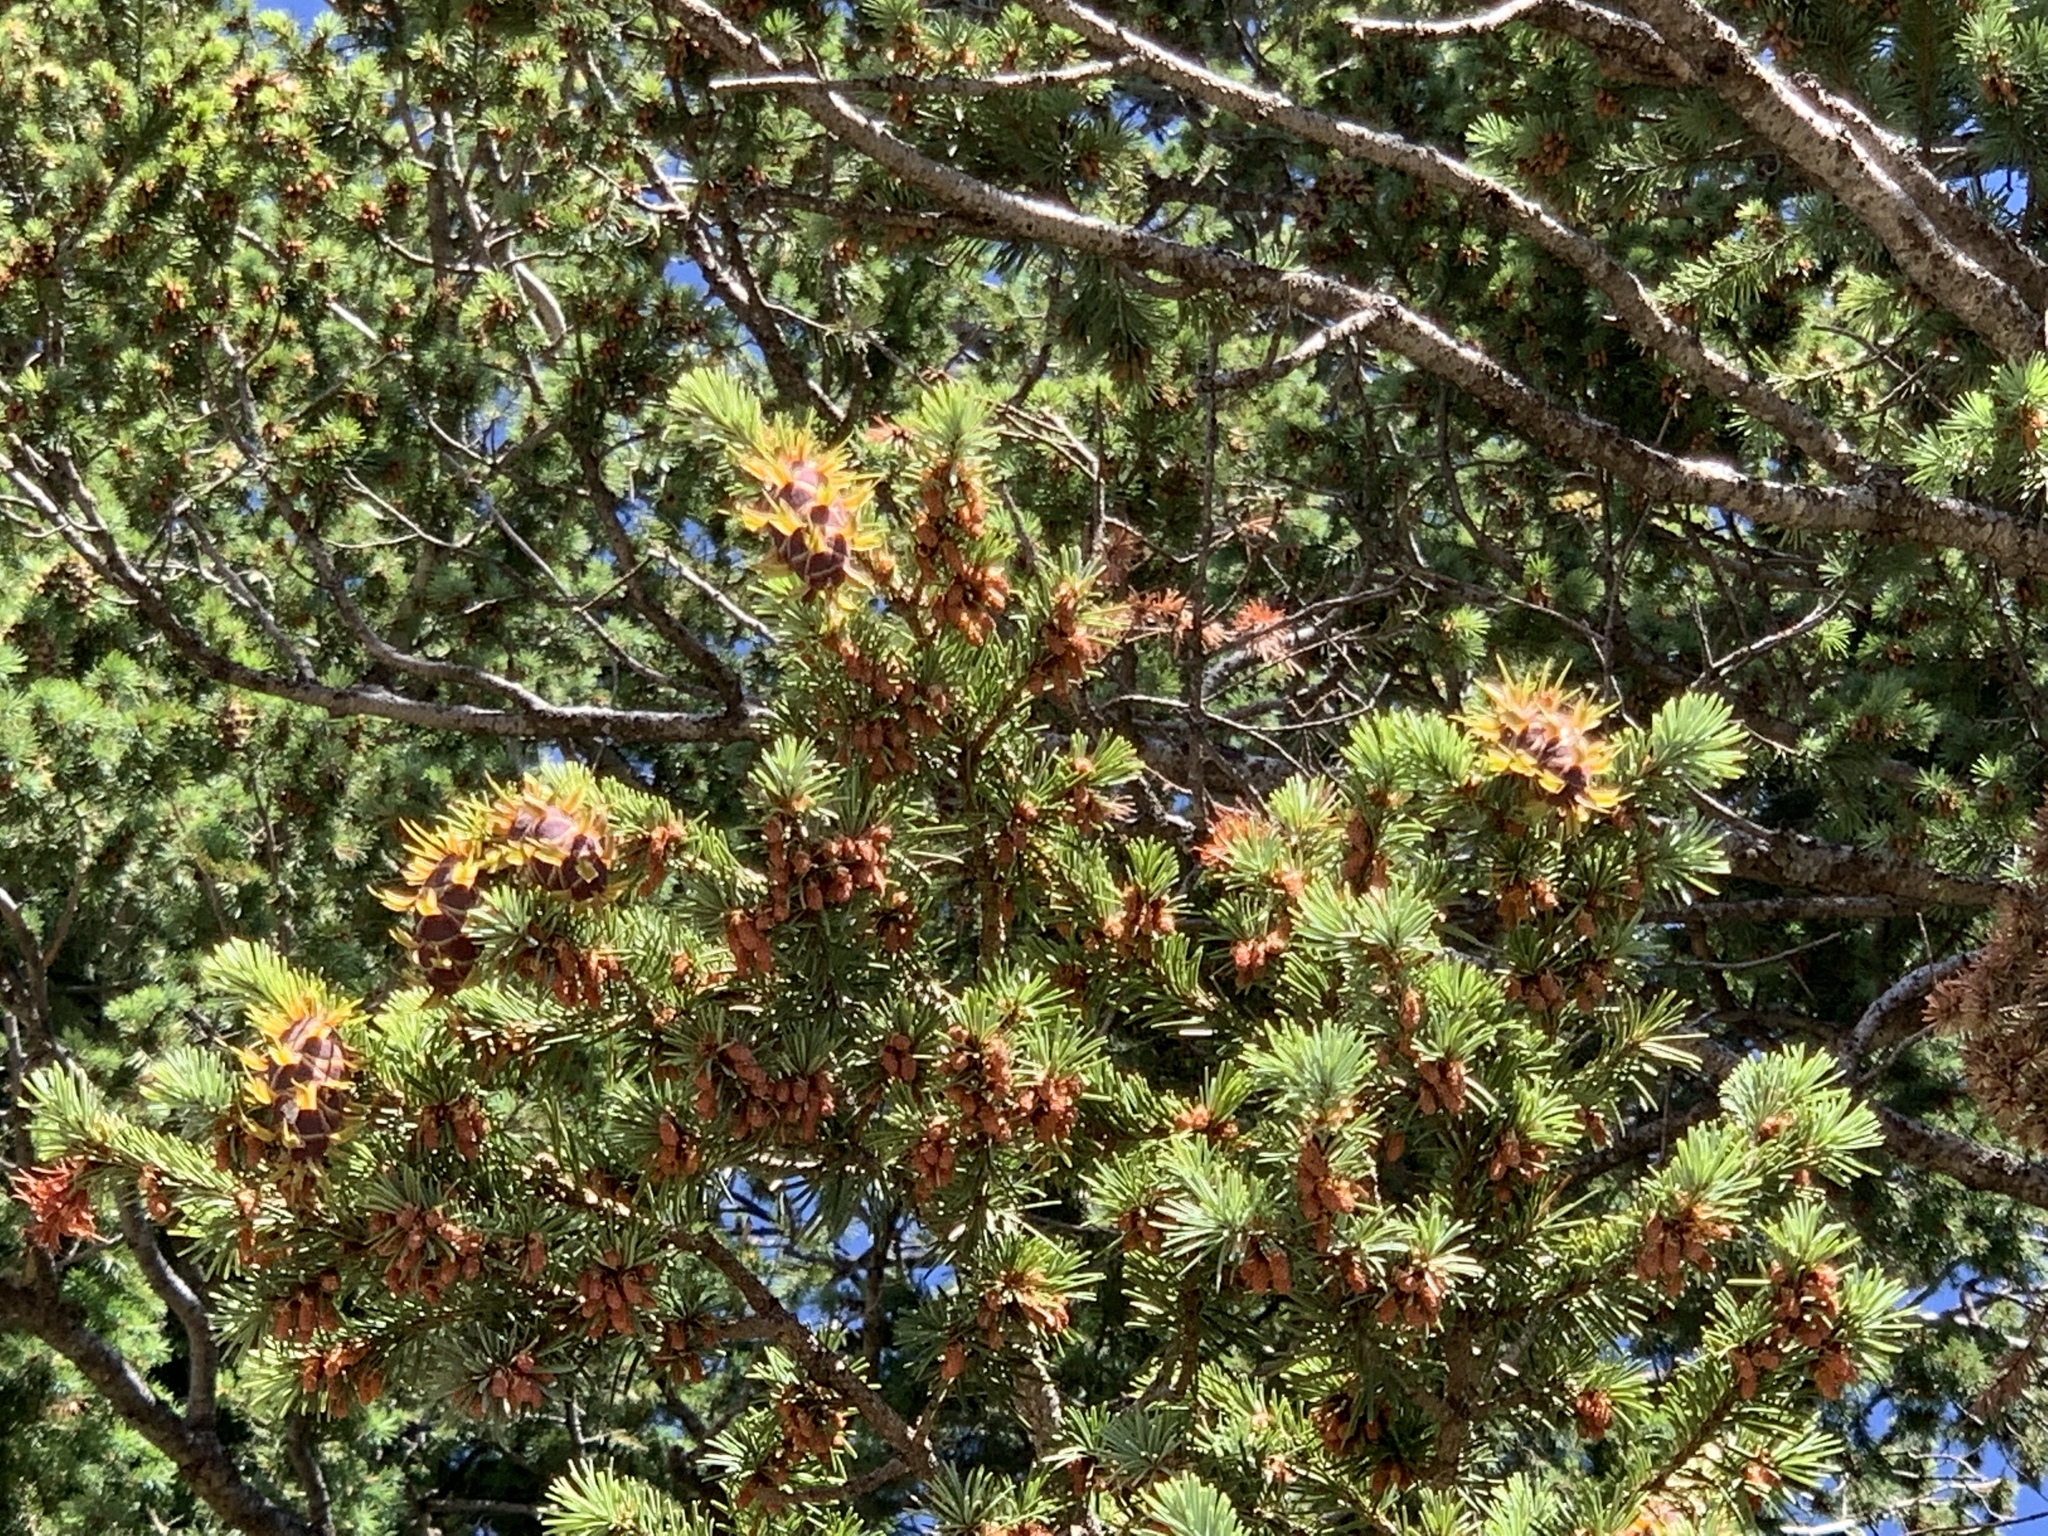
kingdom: Plantae
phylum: Tracheophyta
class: Pinopsida
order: Pinales
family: Pinaceae
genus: Pseudotsuga
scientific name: Pseudotsuga menziesii
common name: Douglas fir
